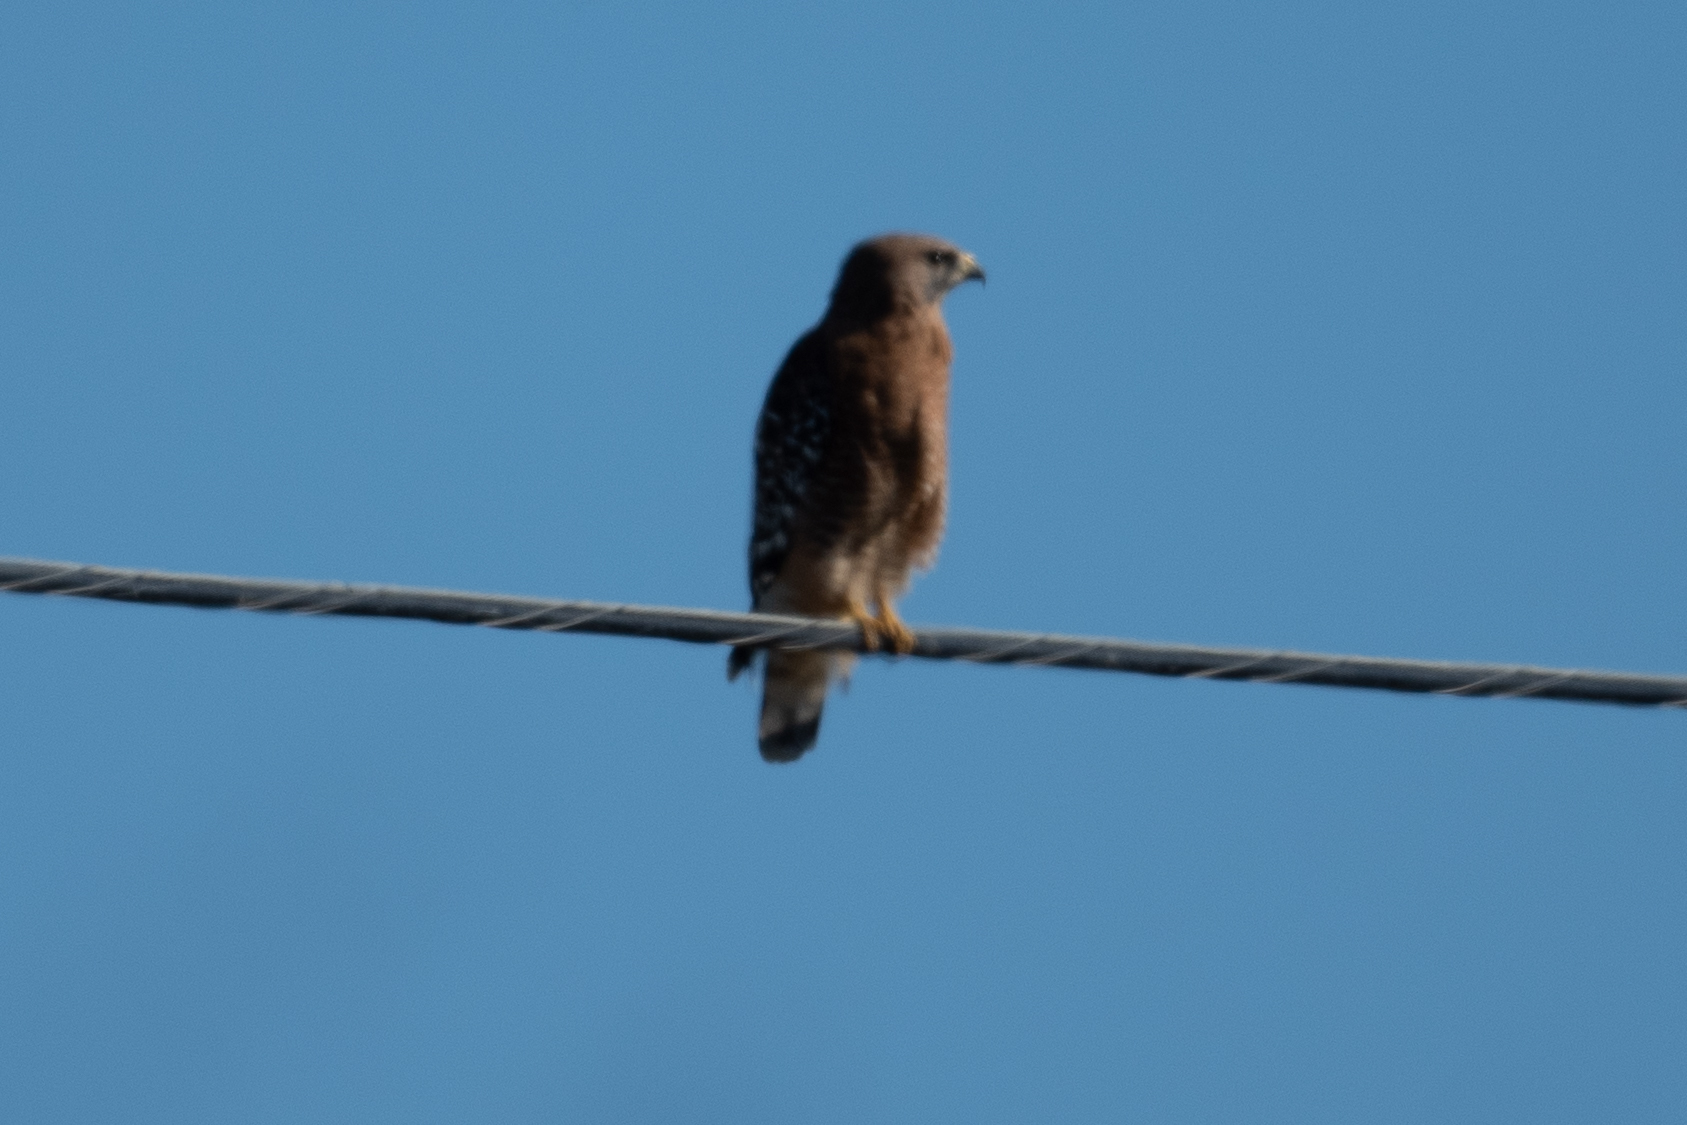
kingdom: Animalia
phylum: Chordata
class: Aves
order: Accipitriformes
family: Accipitridae
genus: Buteo
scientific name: Buteo lineatus
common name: Red-shouldered hawk
